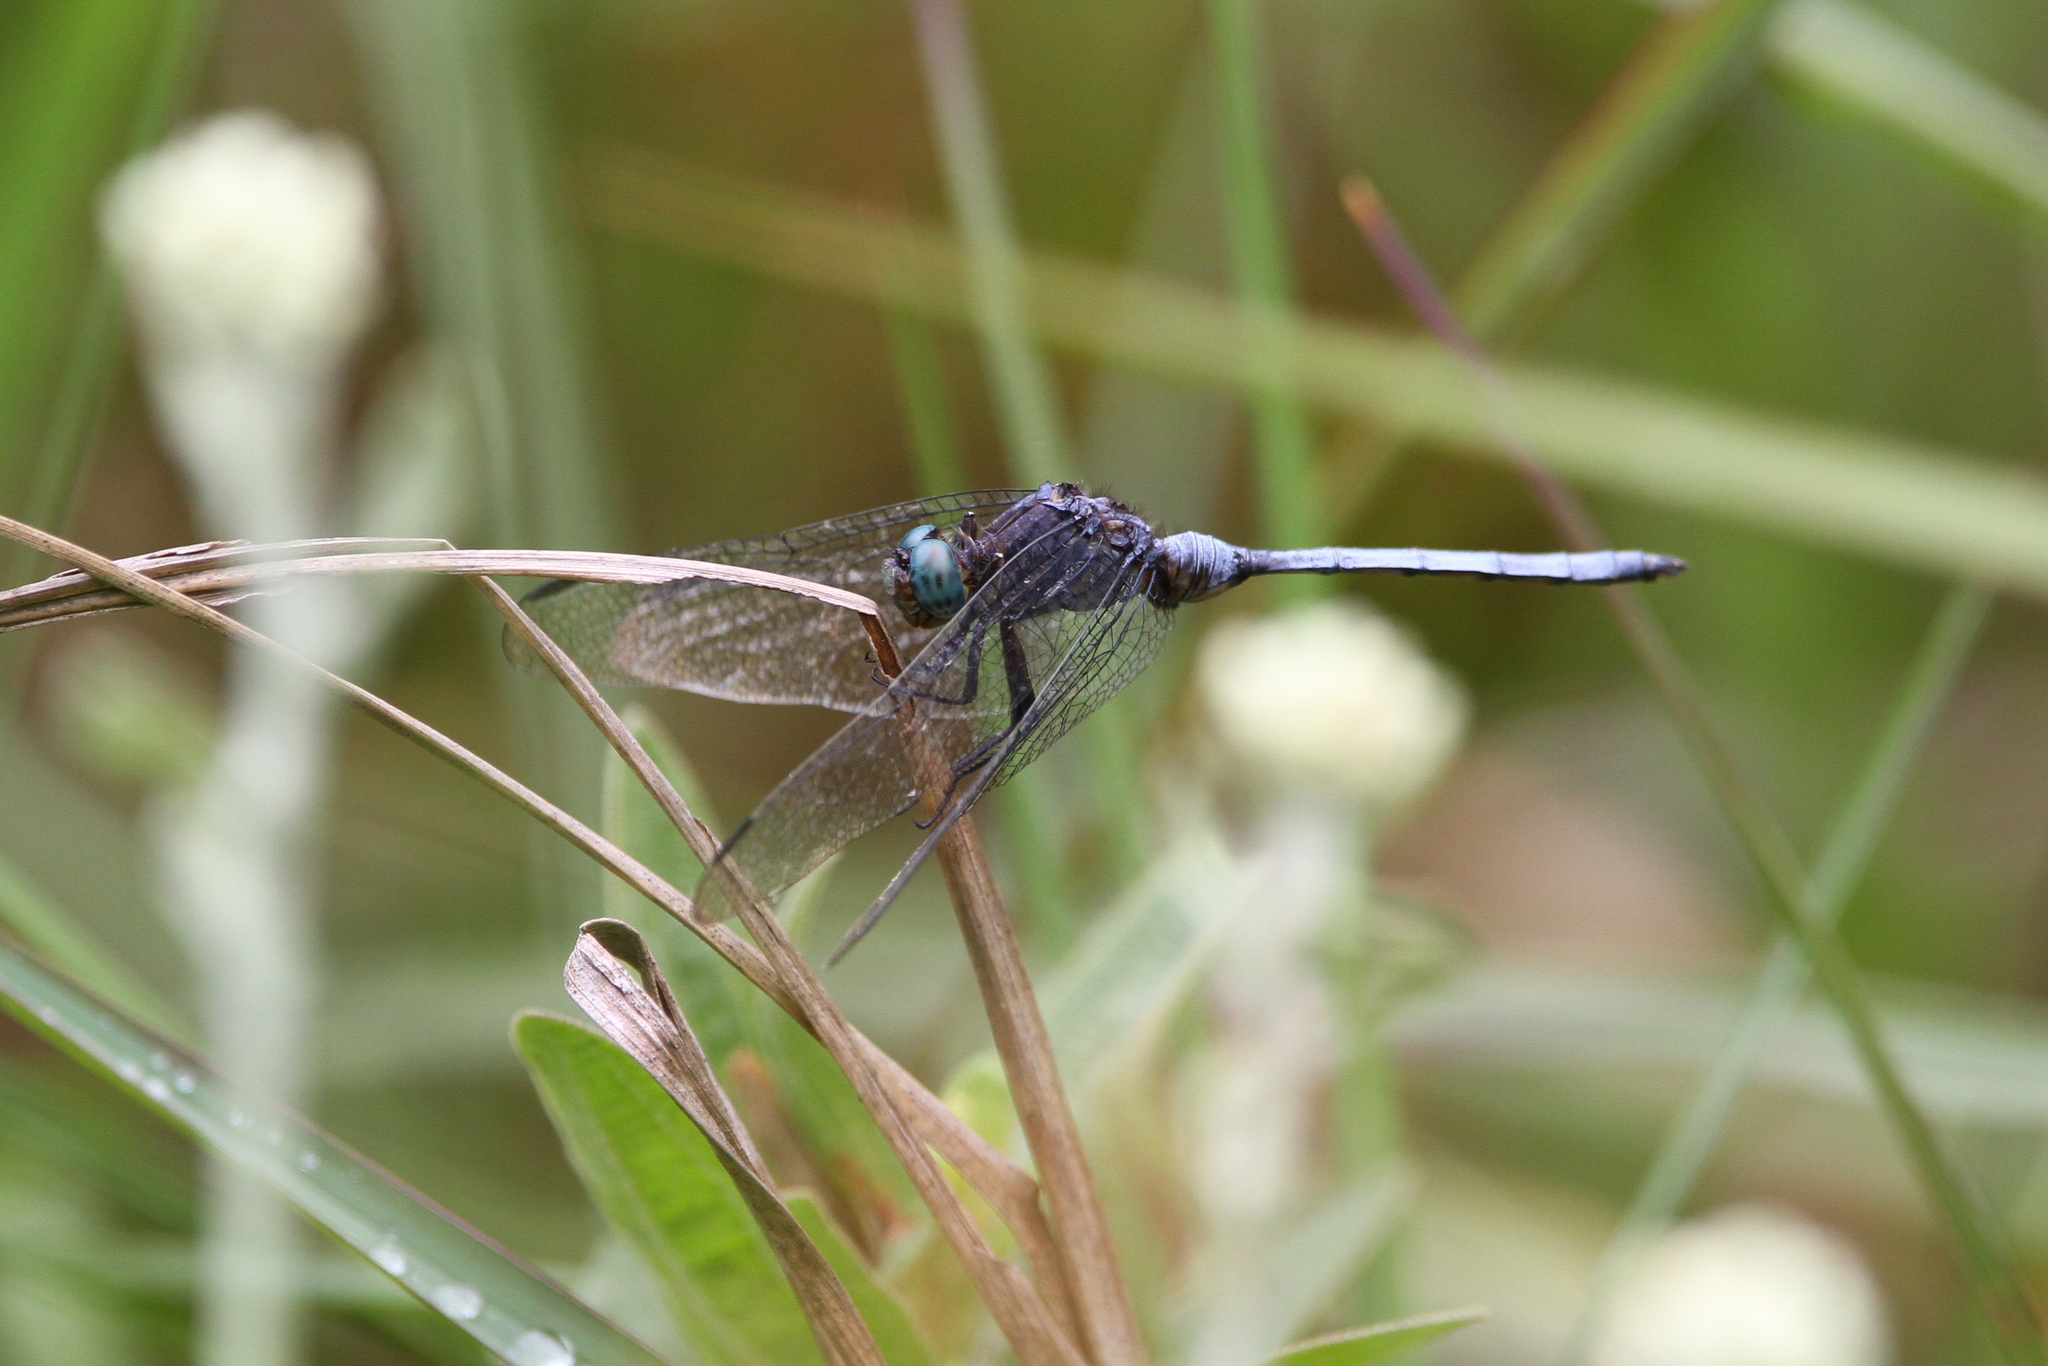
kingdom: Animalia
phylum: Arthropoda
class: Insecta
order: Odonata
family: Libellulidae
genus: Orthetrum
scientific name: Orthetrum julia
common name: Julia skimmer
